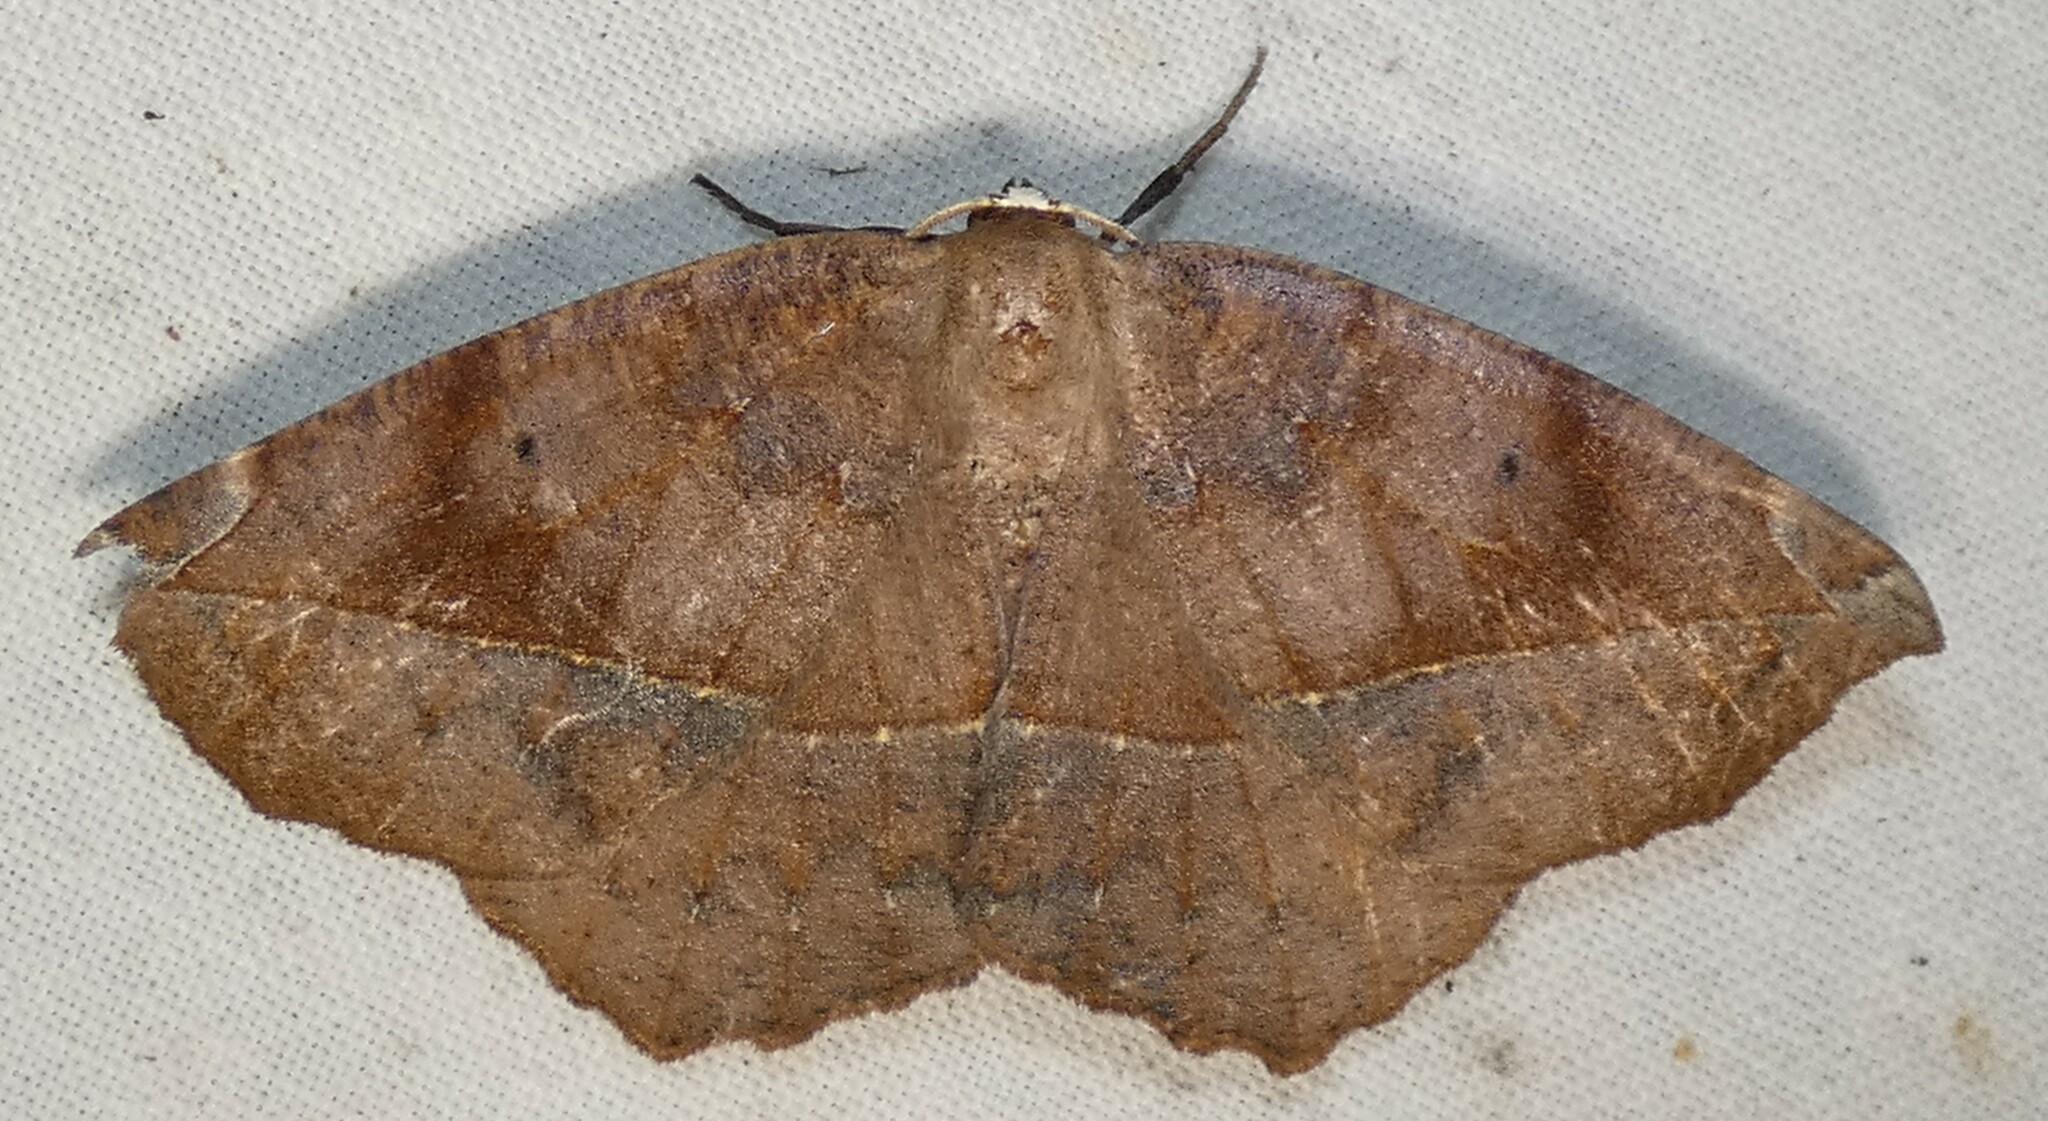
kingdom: Animalia
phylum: Arthropoda
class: Insecta
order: Lepidoptera
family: Geometridae
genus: Eutrapela
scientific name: Eutrapela clemataria
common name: Curved-toothed geometer
